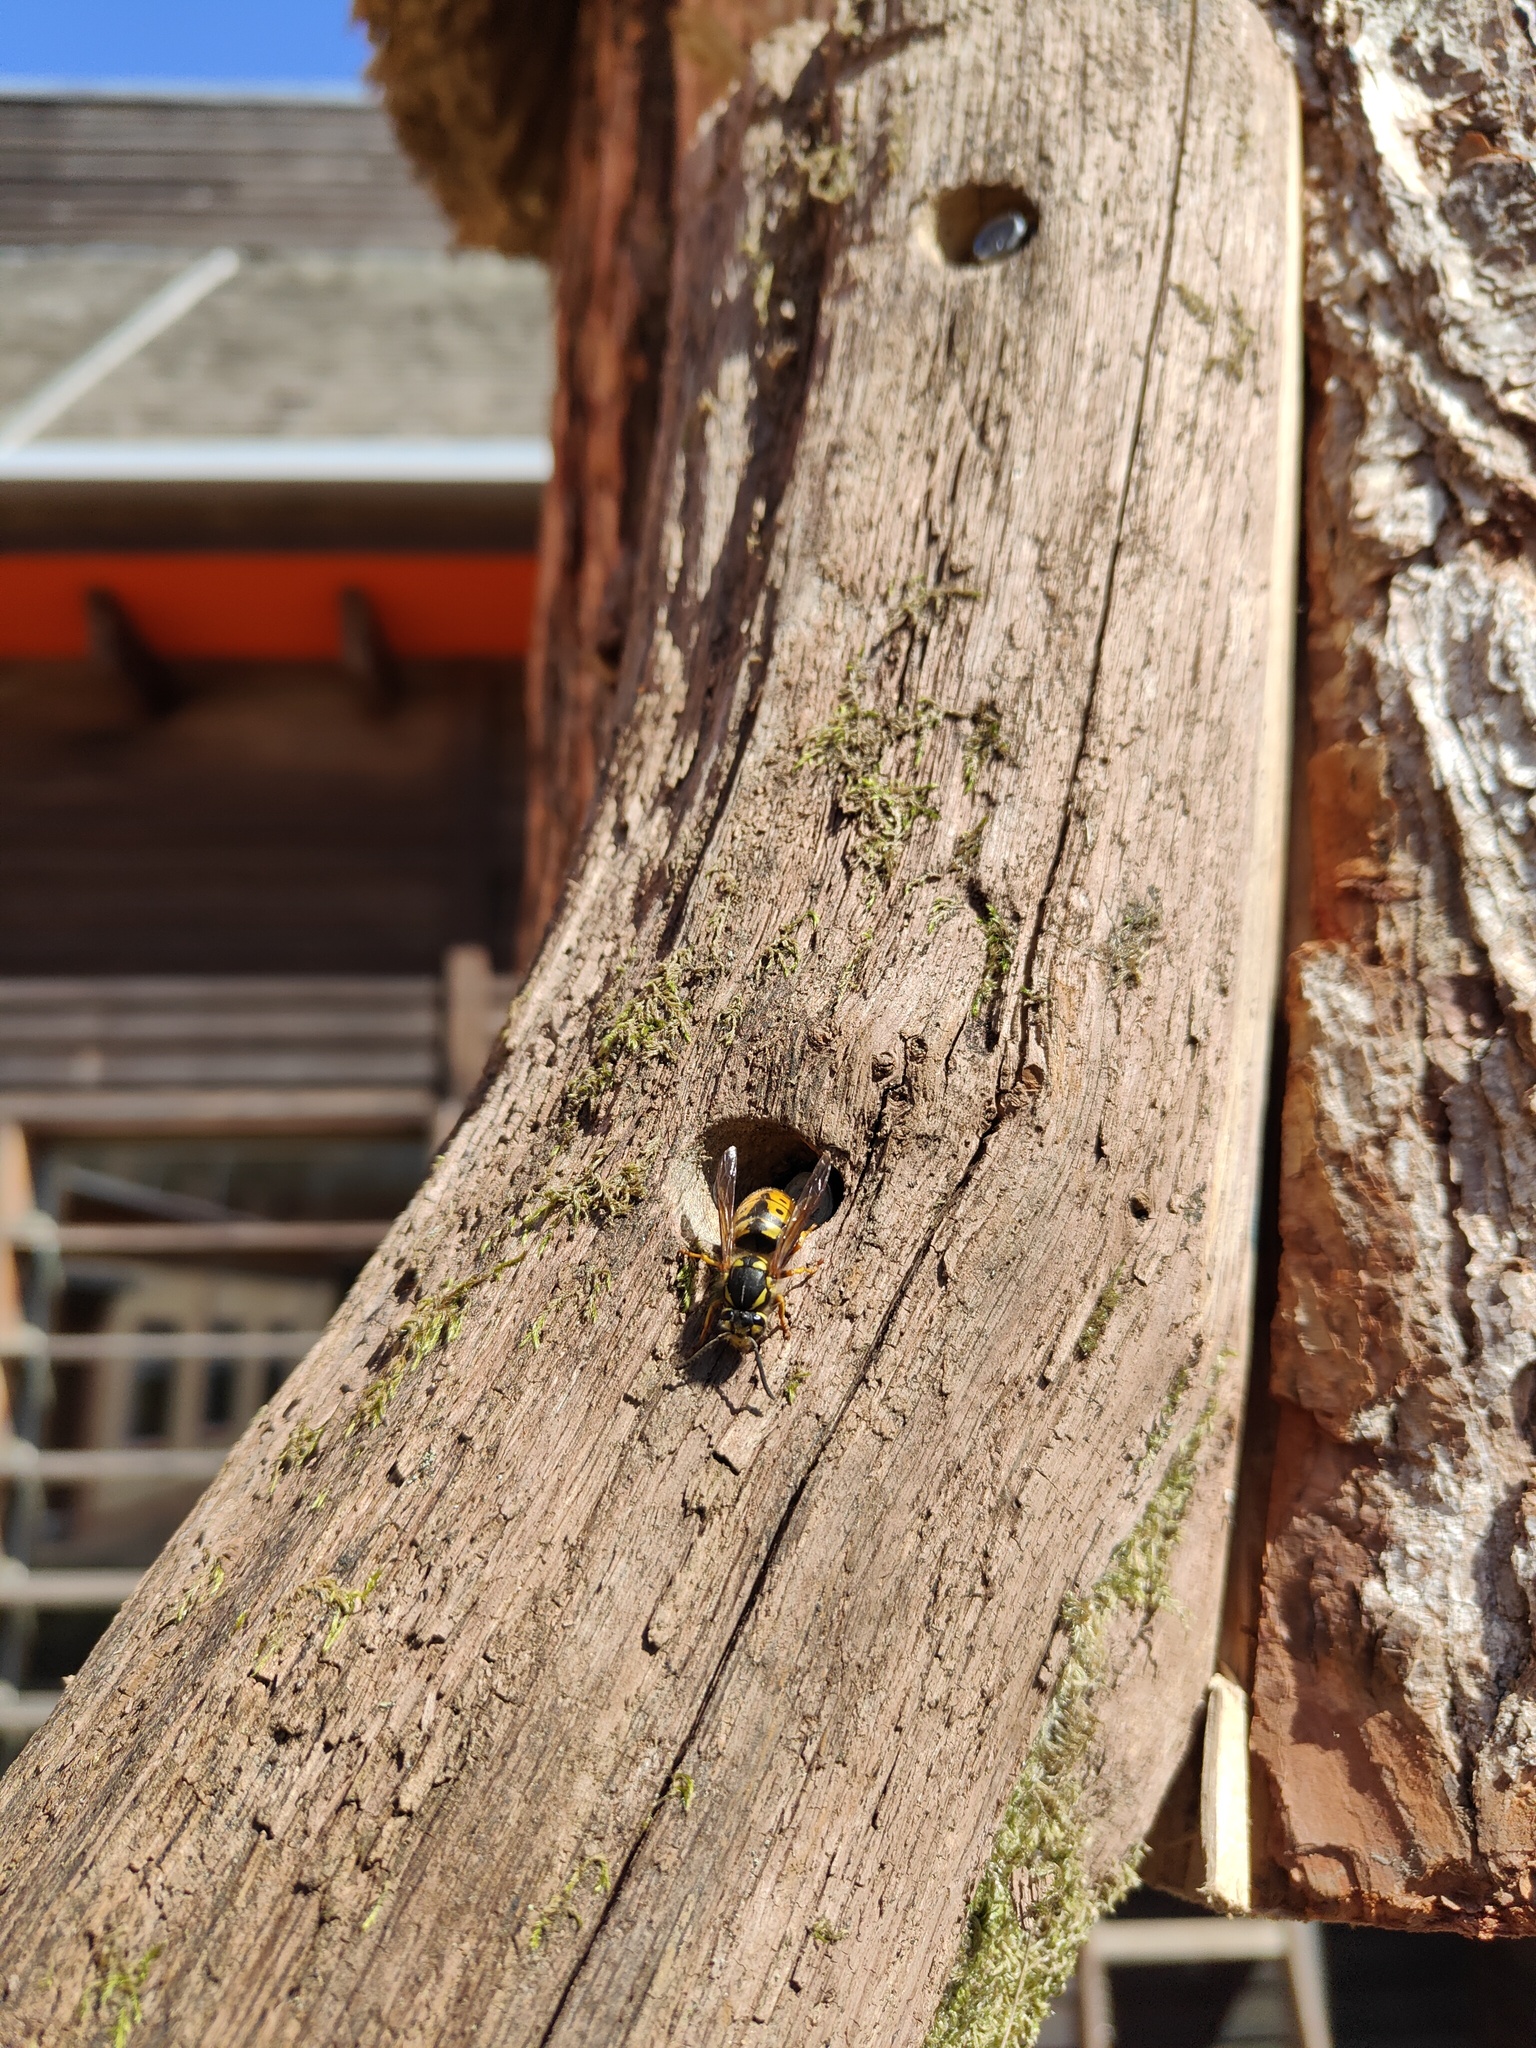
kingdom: Animalia
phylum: Arthropoda
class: Insecta
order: Hymenoptera
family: Vespidae
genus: Vespula
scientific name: Vespula germanica
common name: German wasp
